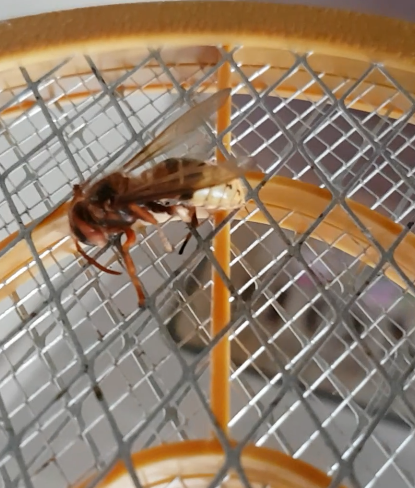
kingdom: Animalia
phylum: Arthropoda
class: Insecta
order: Hymenoptera
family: Vespidae
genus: Vespa
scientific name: Vespa crabro
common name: Hornet
